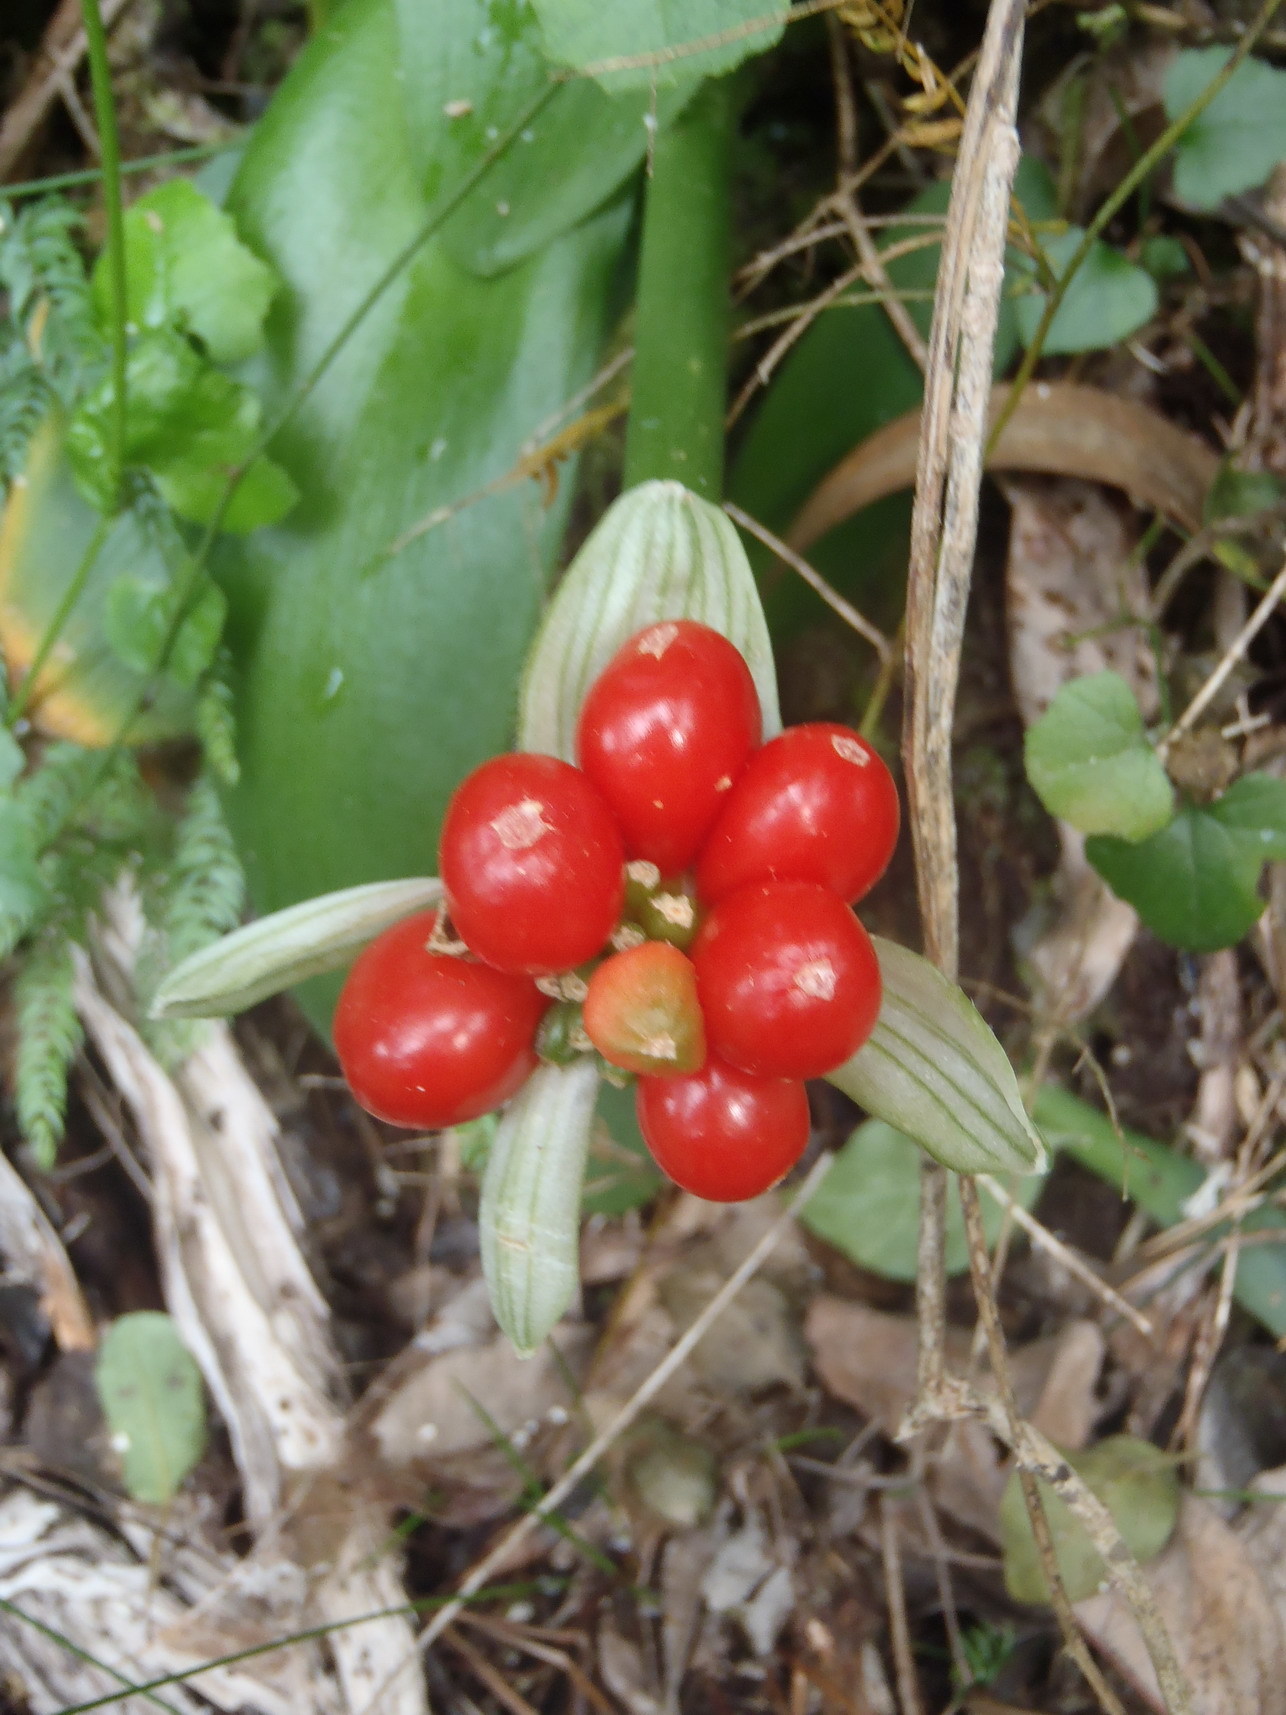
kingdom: Plantae
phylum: Tracheophyta
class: Liliopsida
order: Asparagales
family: Amaryllidaceae
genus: Haemanthus
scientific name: Haemanthus albiflos
